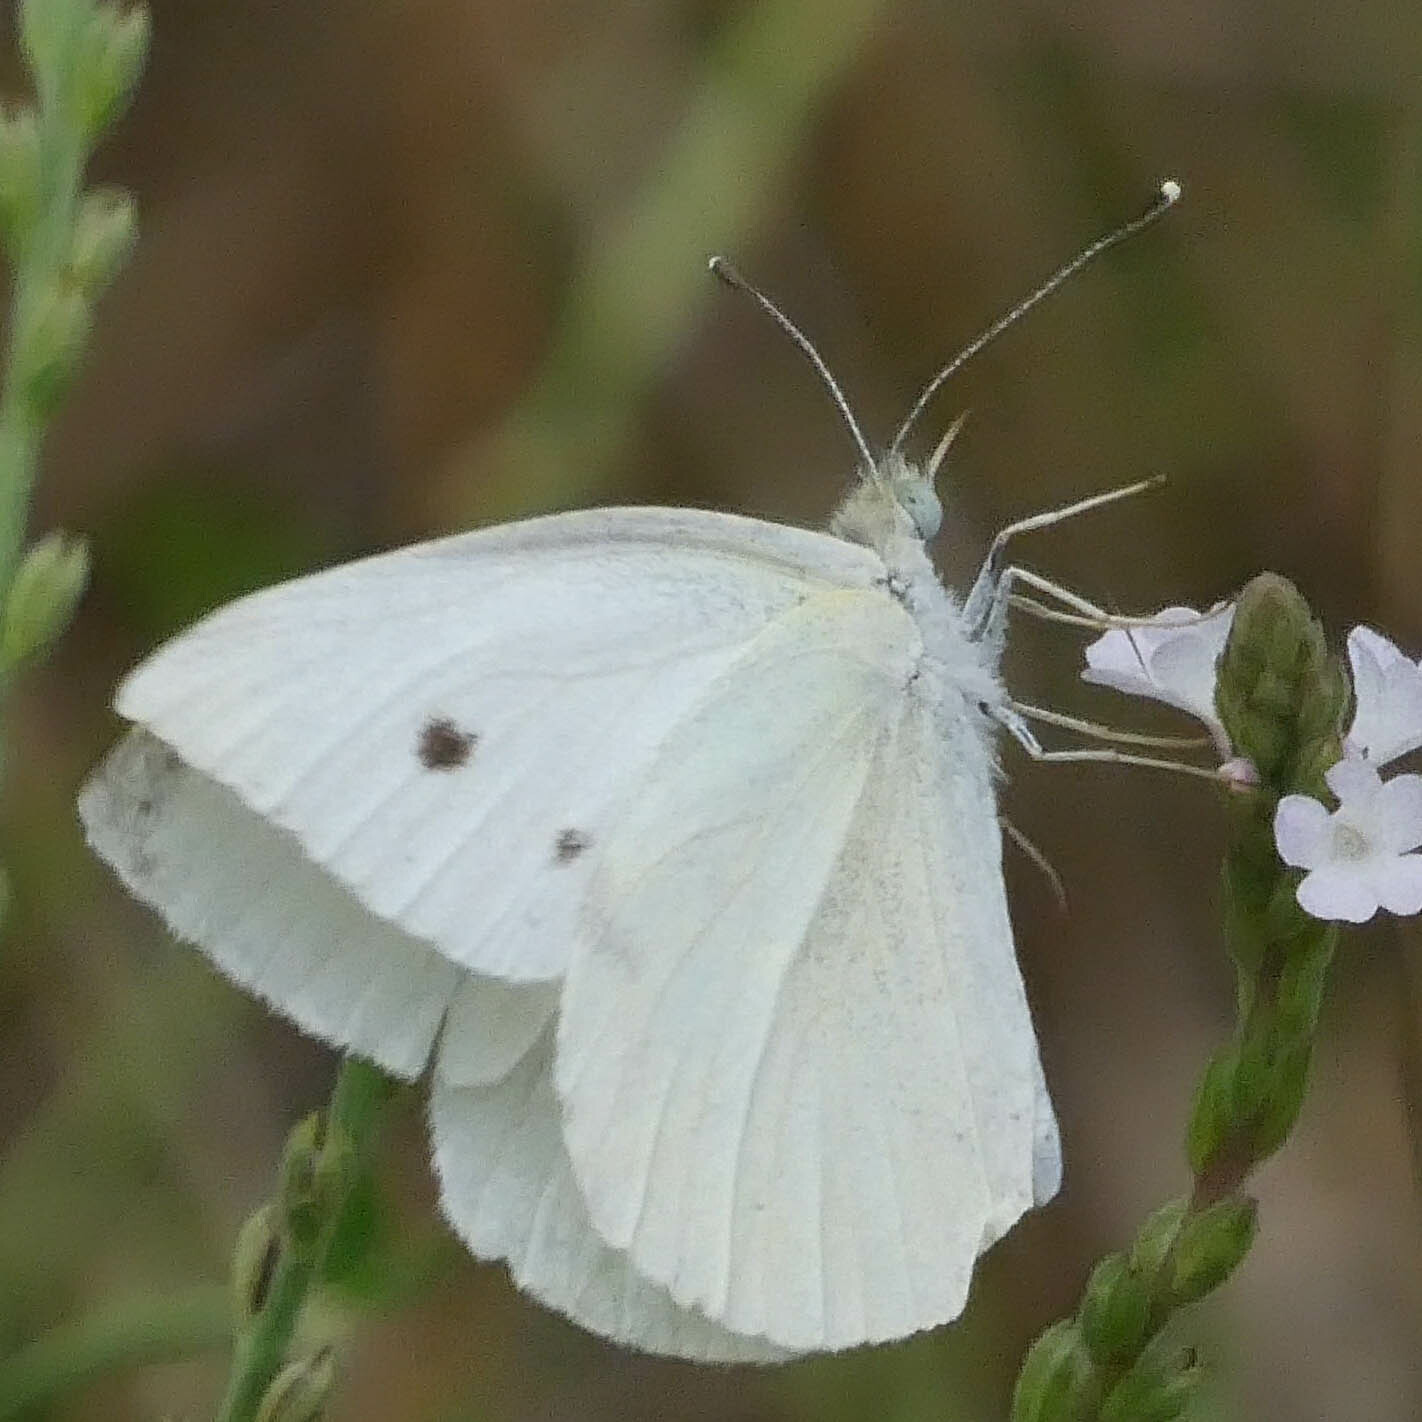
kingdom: Animalia
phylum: Arthropoda
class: Insecta
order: Lepidoptera
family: Pieridae
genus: Pieris
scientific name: Pieris rapae
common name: Small white
